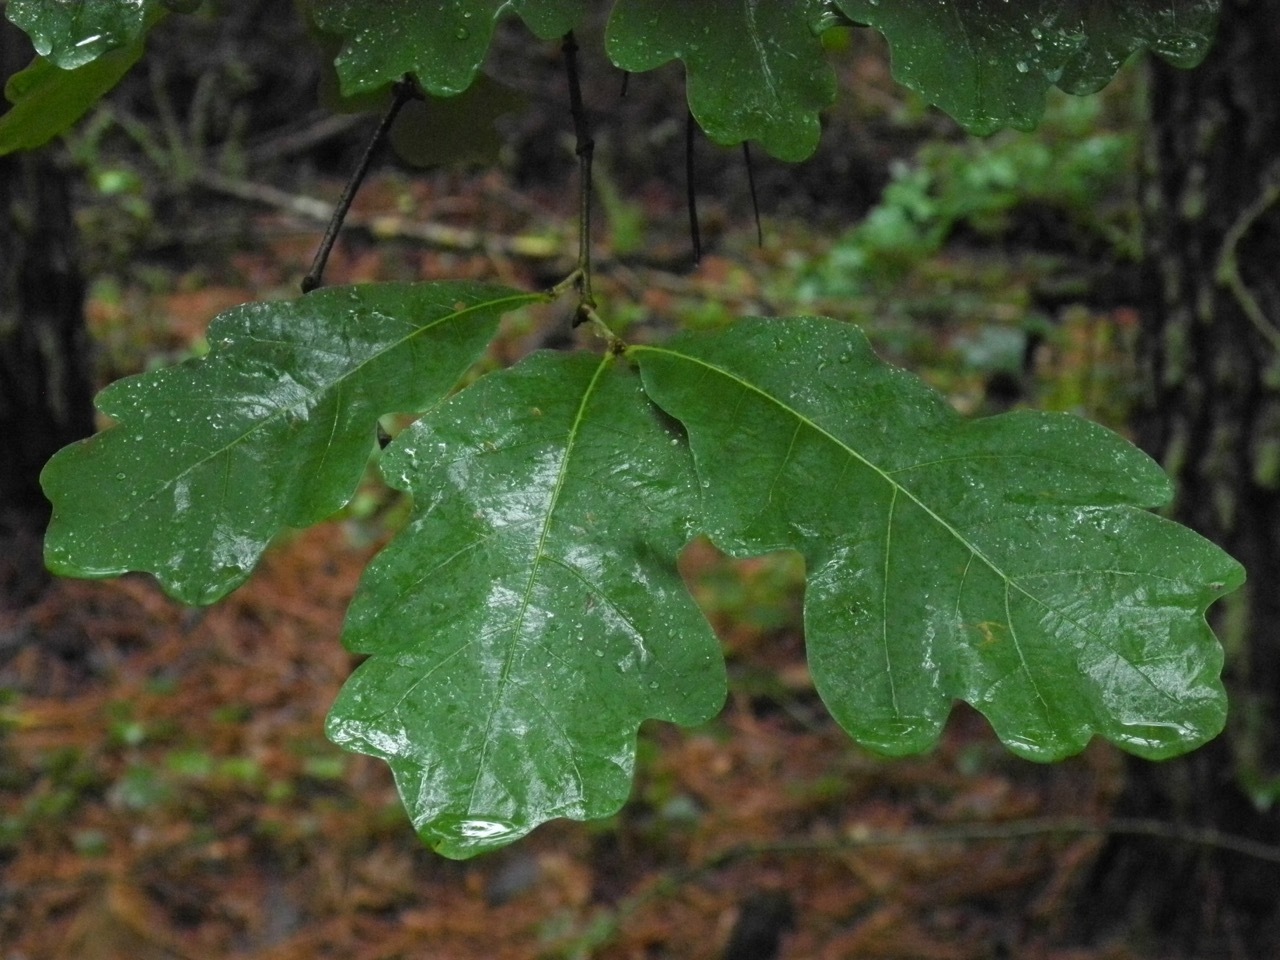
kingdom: Plantae
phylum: Tracheophyta
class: Magnoliopsida
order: Fagales
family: Fagaceae
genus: Quercus
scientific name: Quercus alba
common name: White oak
